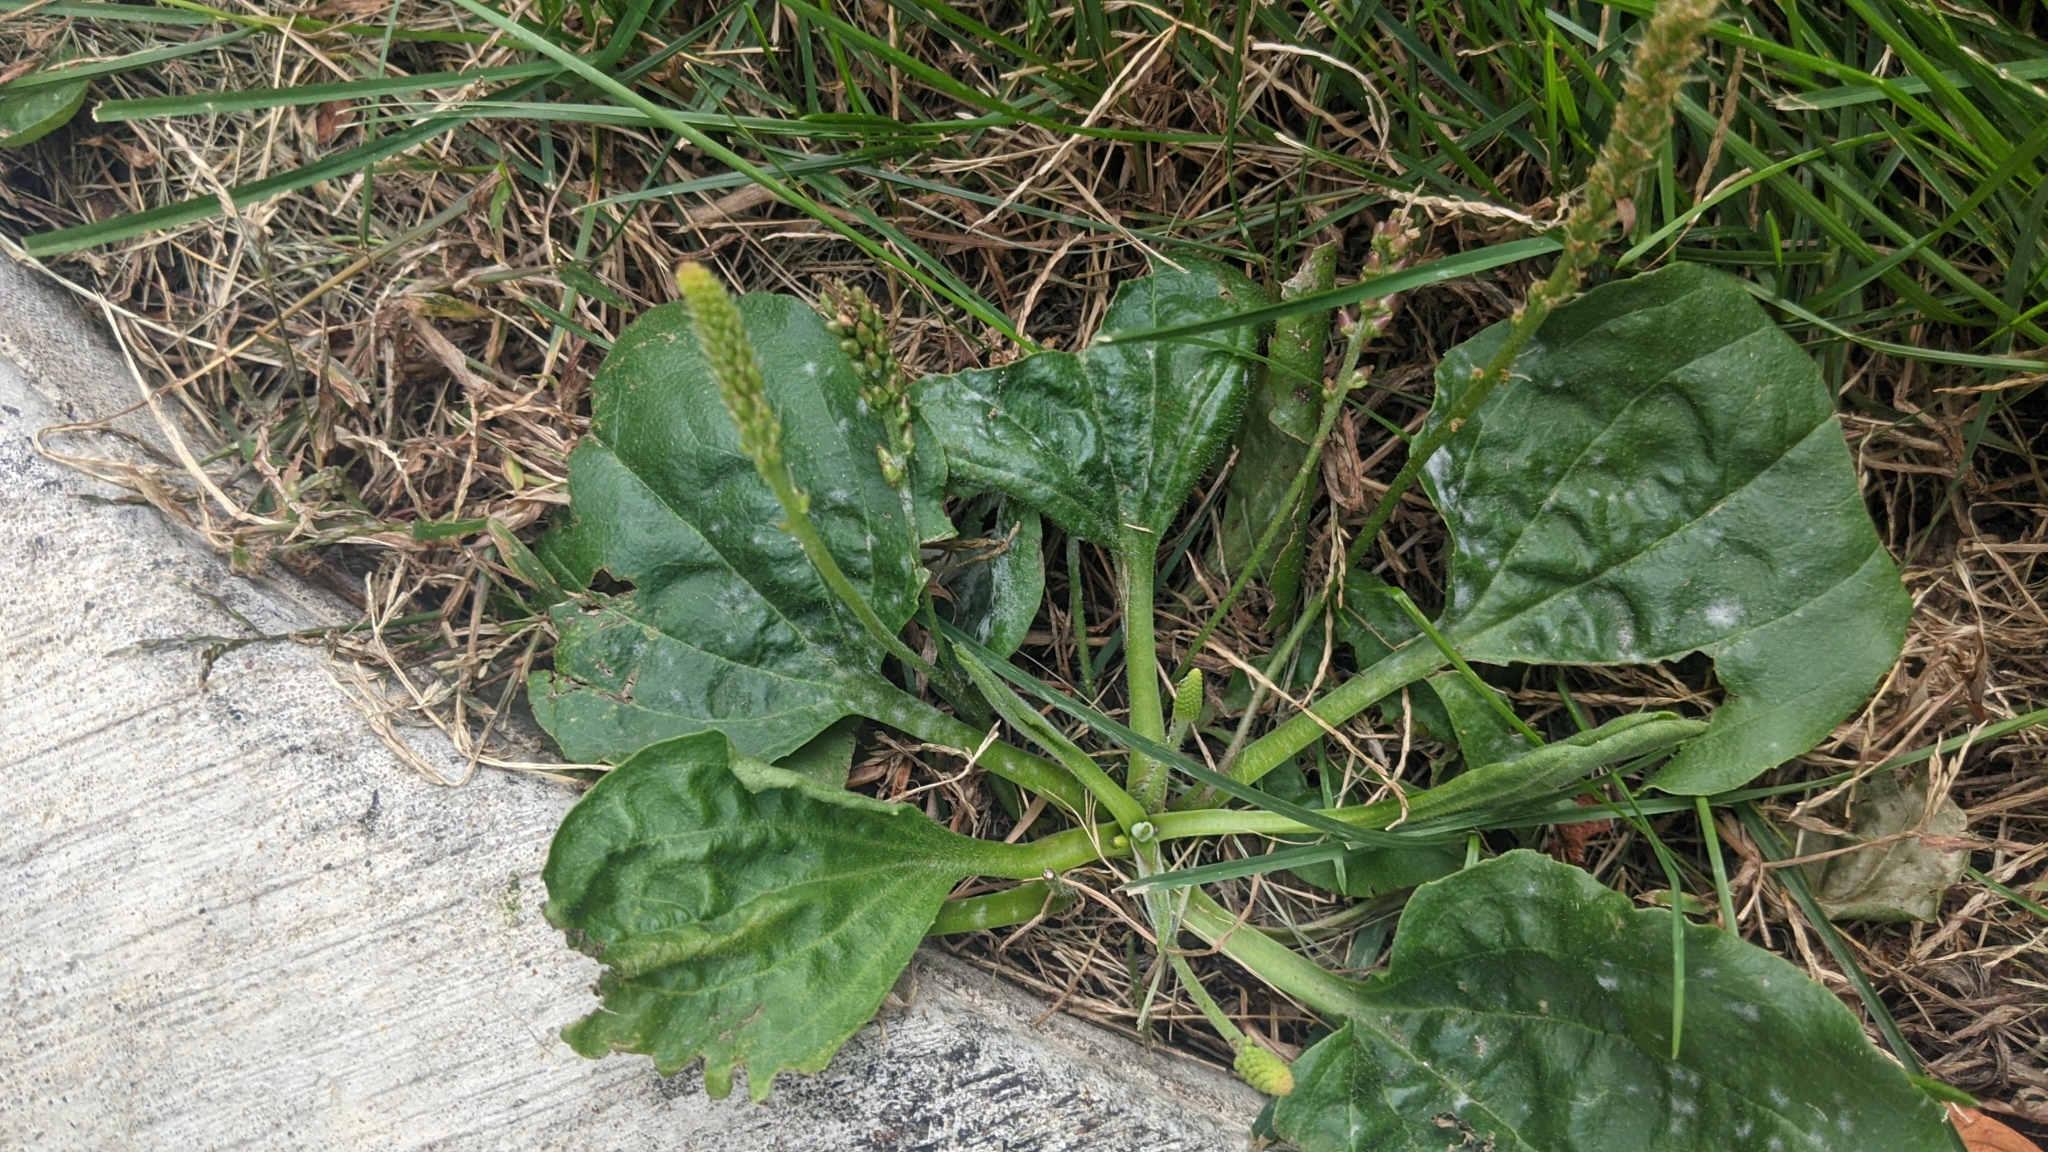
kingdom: Plantae
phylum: Tracheophyta
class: Magnoliopsida
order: Lamiales
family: Plantaginaceae
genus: Plantago
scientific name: Plantago major
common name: Common plantain
